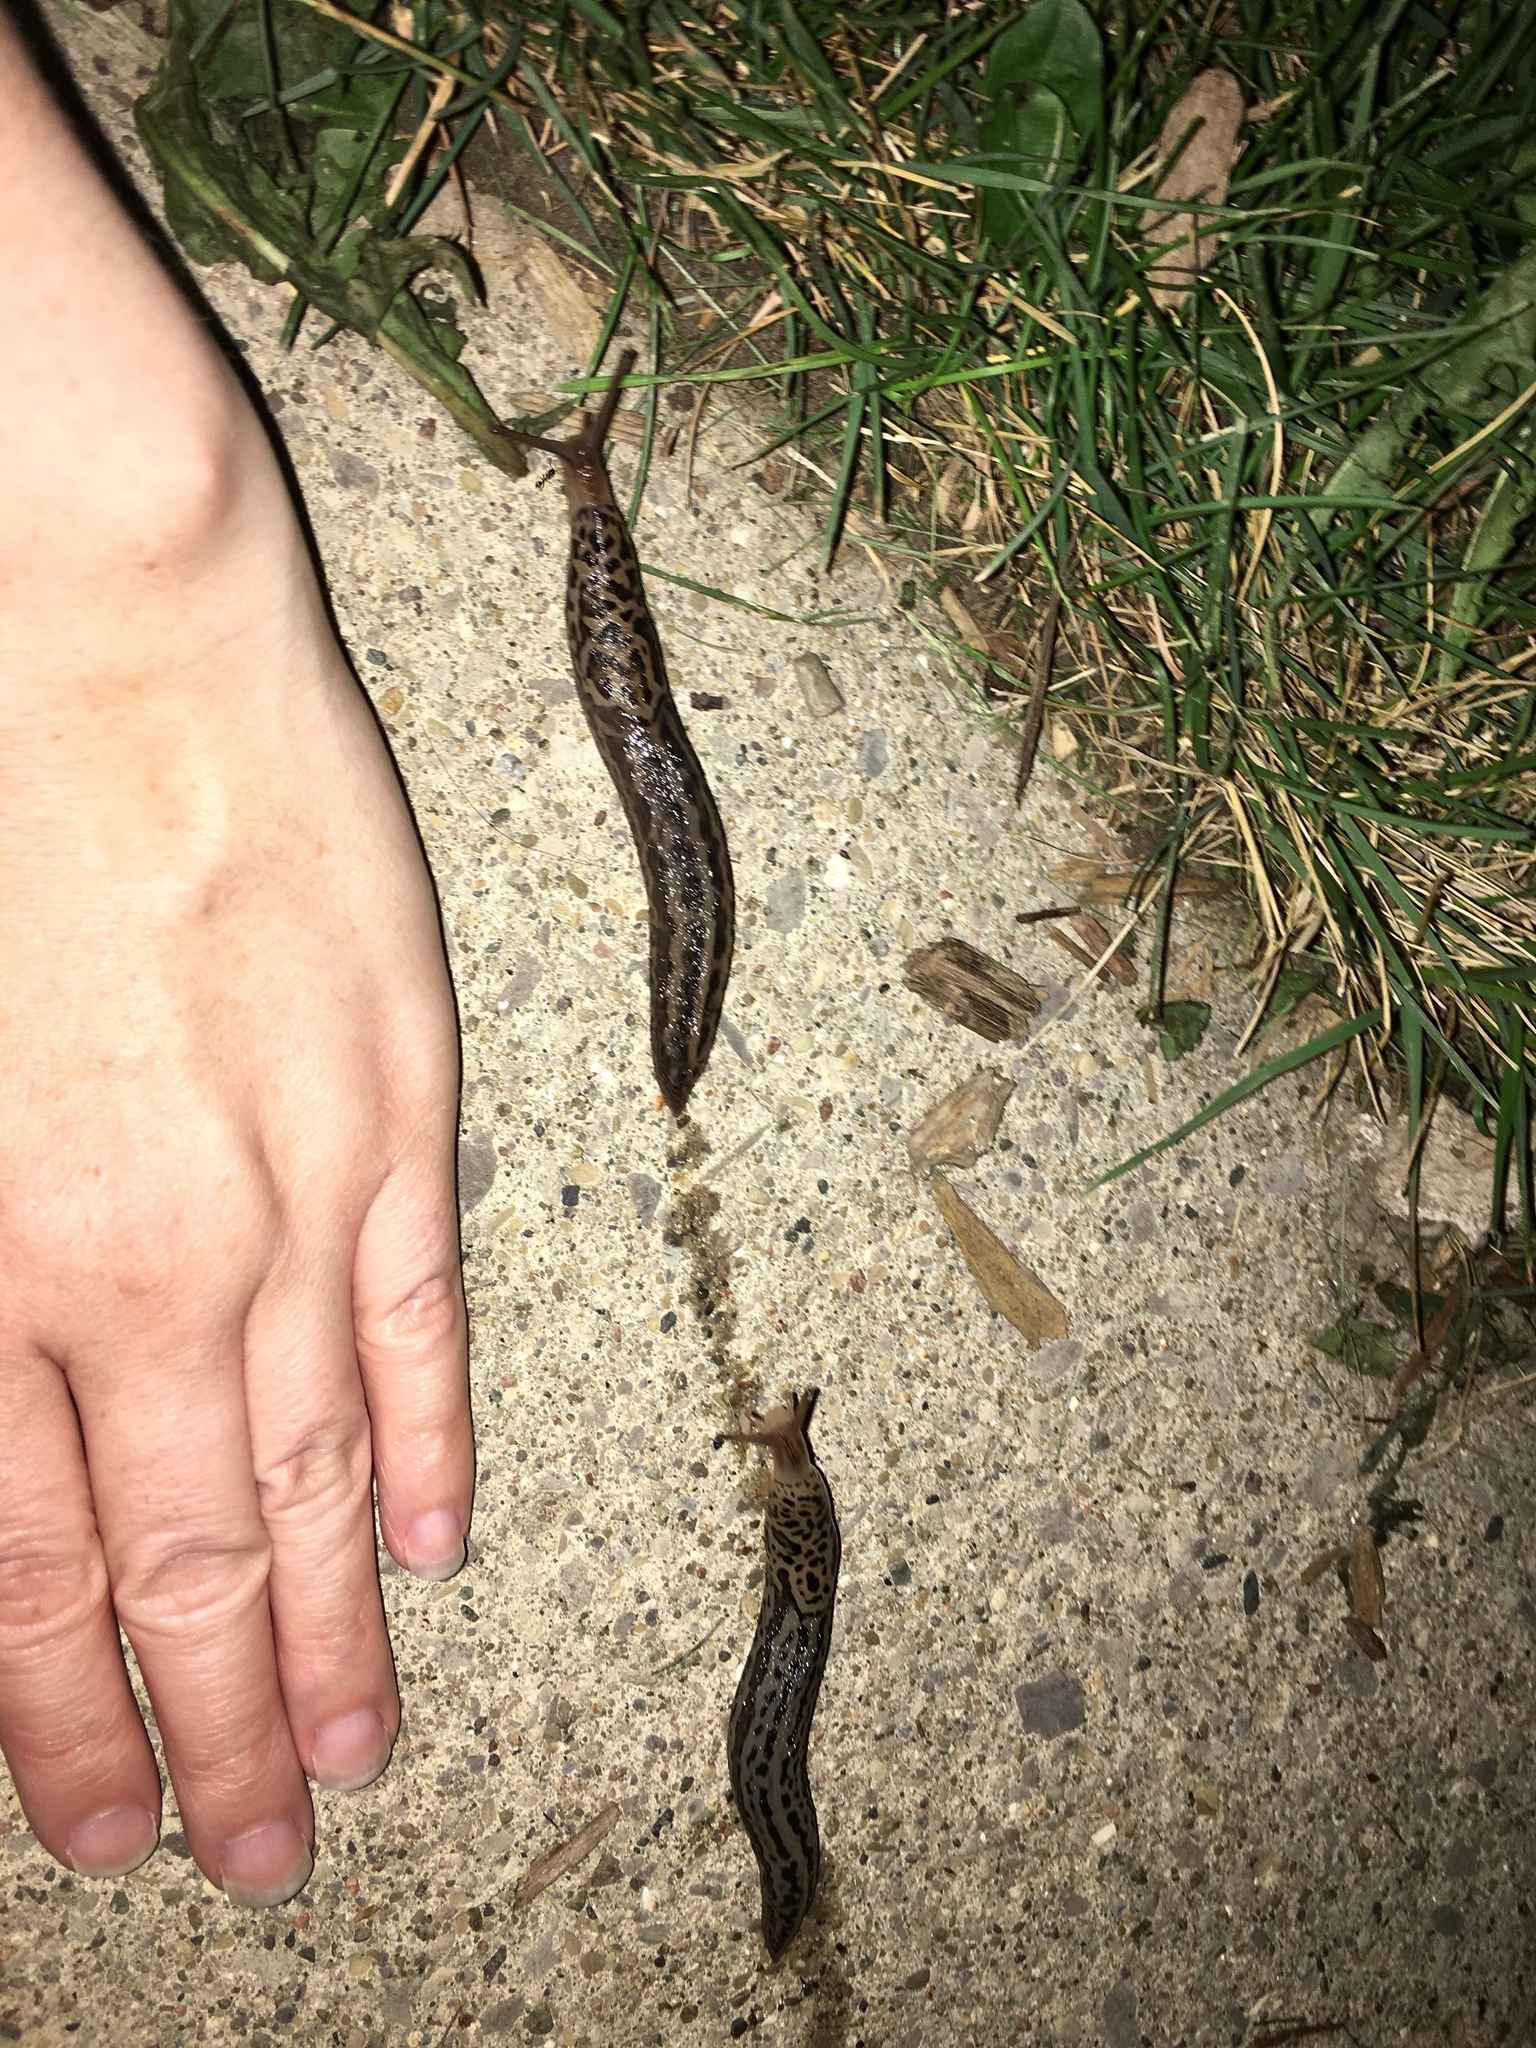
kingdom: Animalia
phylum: Mollusca
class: Gastropoda
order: Stylommatophora
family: Limacidae
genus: Limax
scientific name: Limax maximus
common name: Great grey slug
